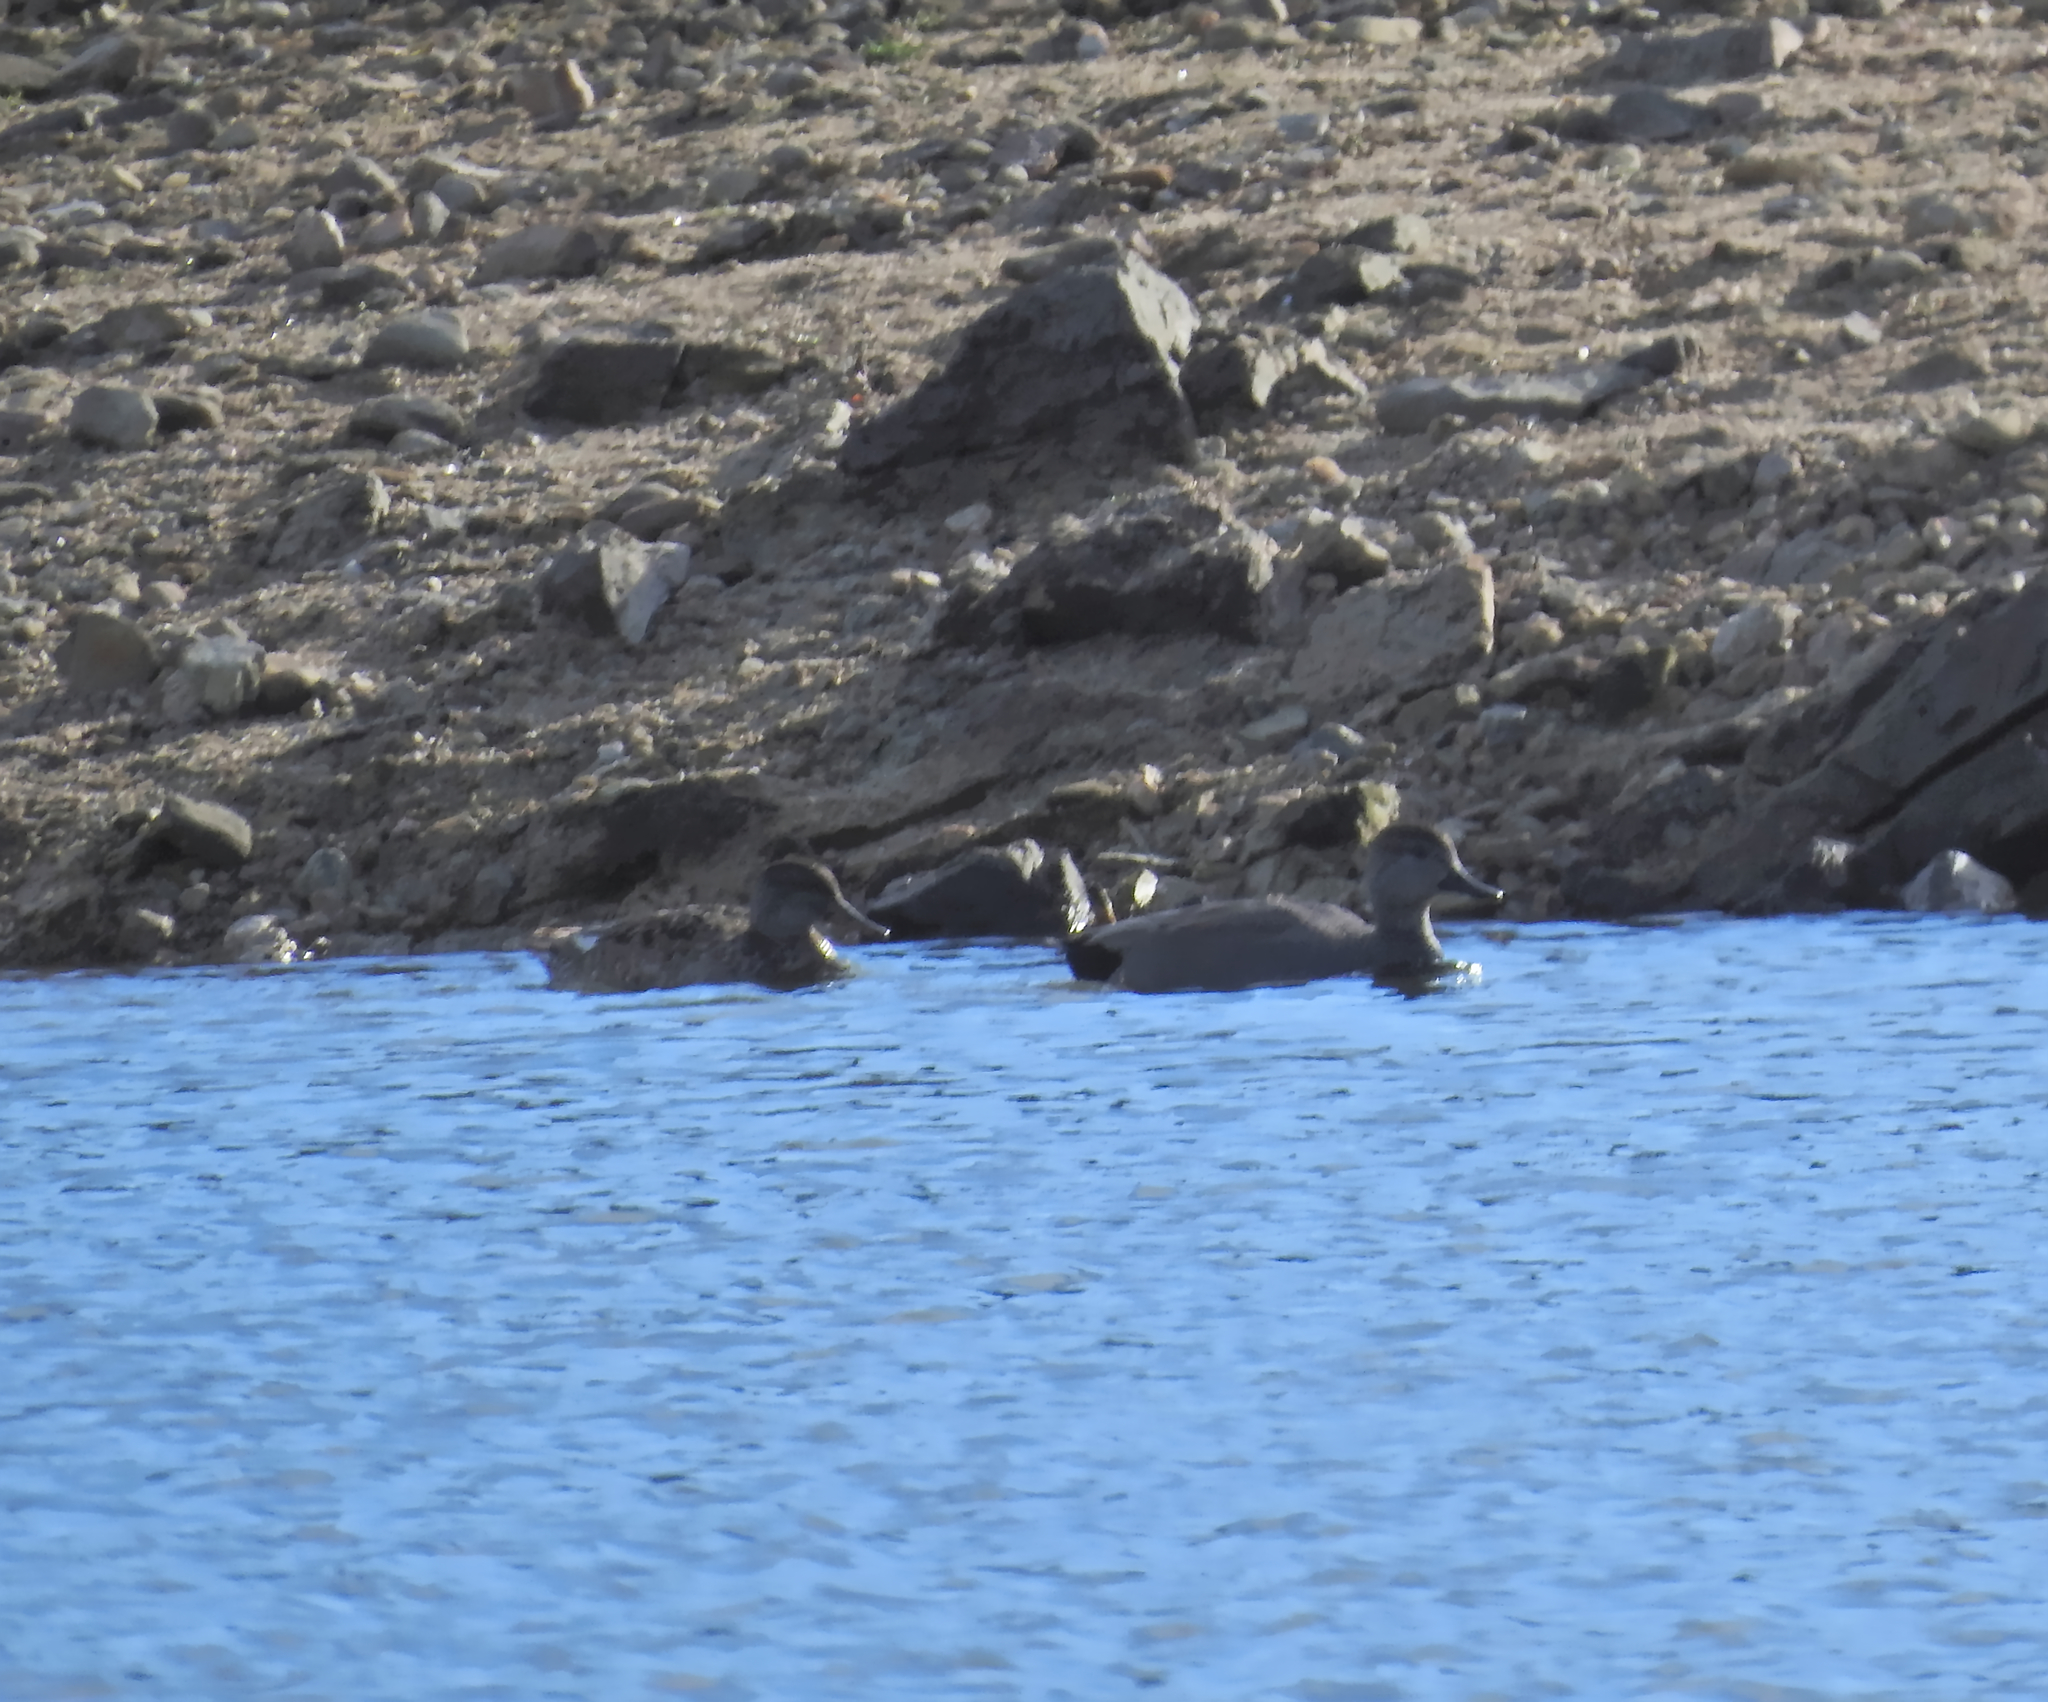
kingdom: Animalia
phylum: Chordata
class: Aves
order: Anseriformes
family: Anatidae
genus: Mareca
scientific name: Mareca strepera
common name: Gadwall
